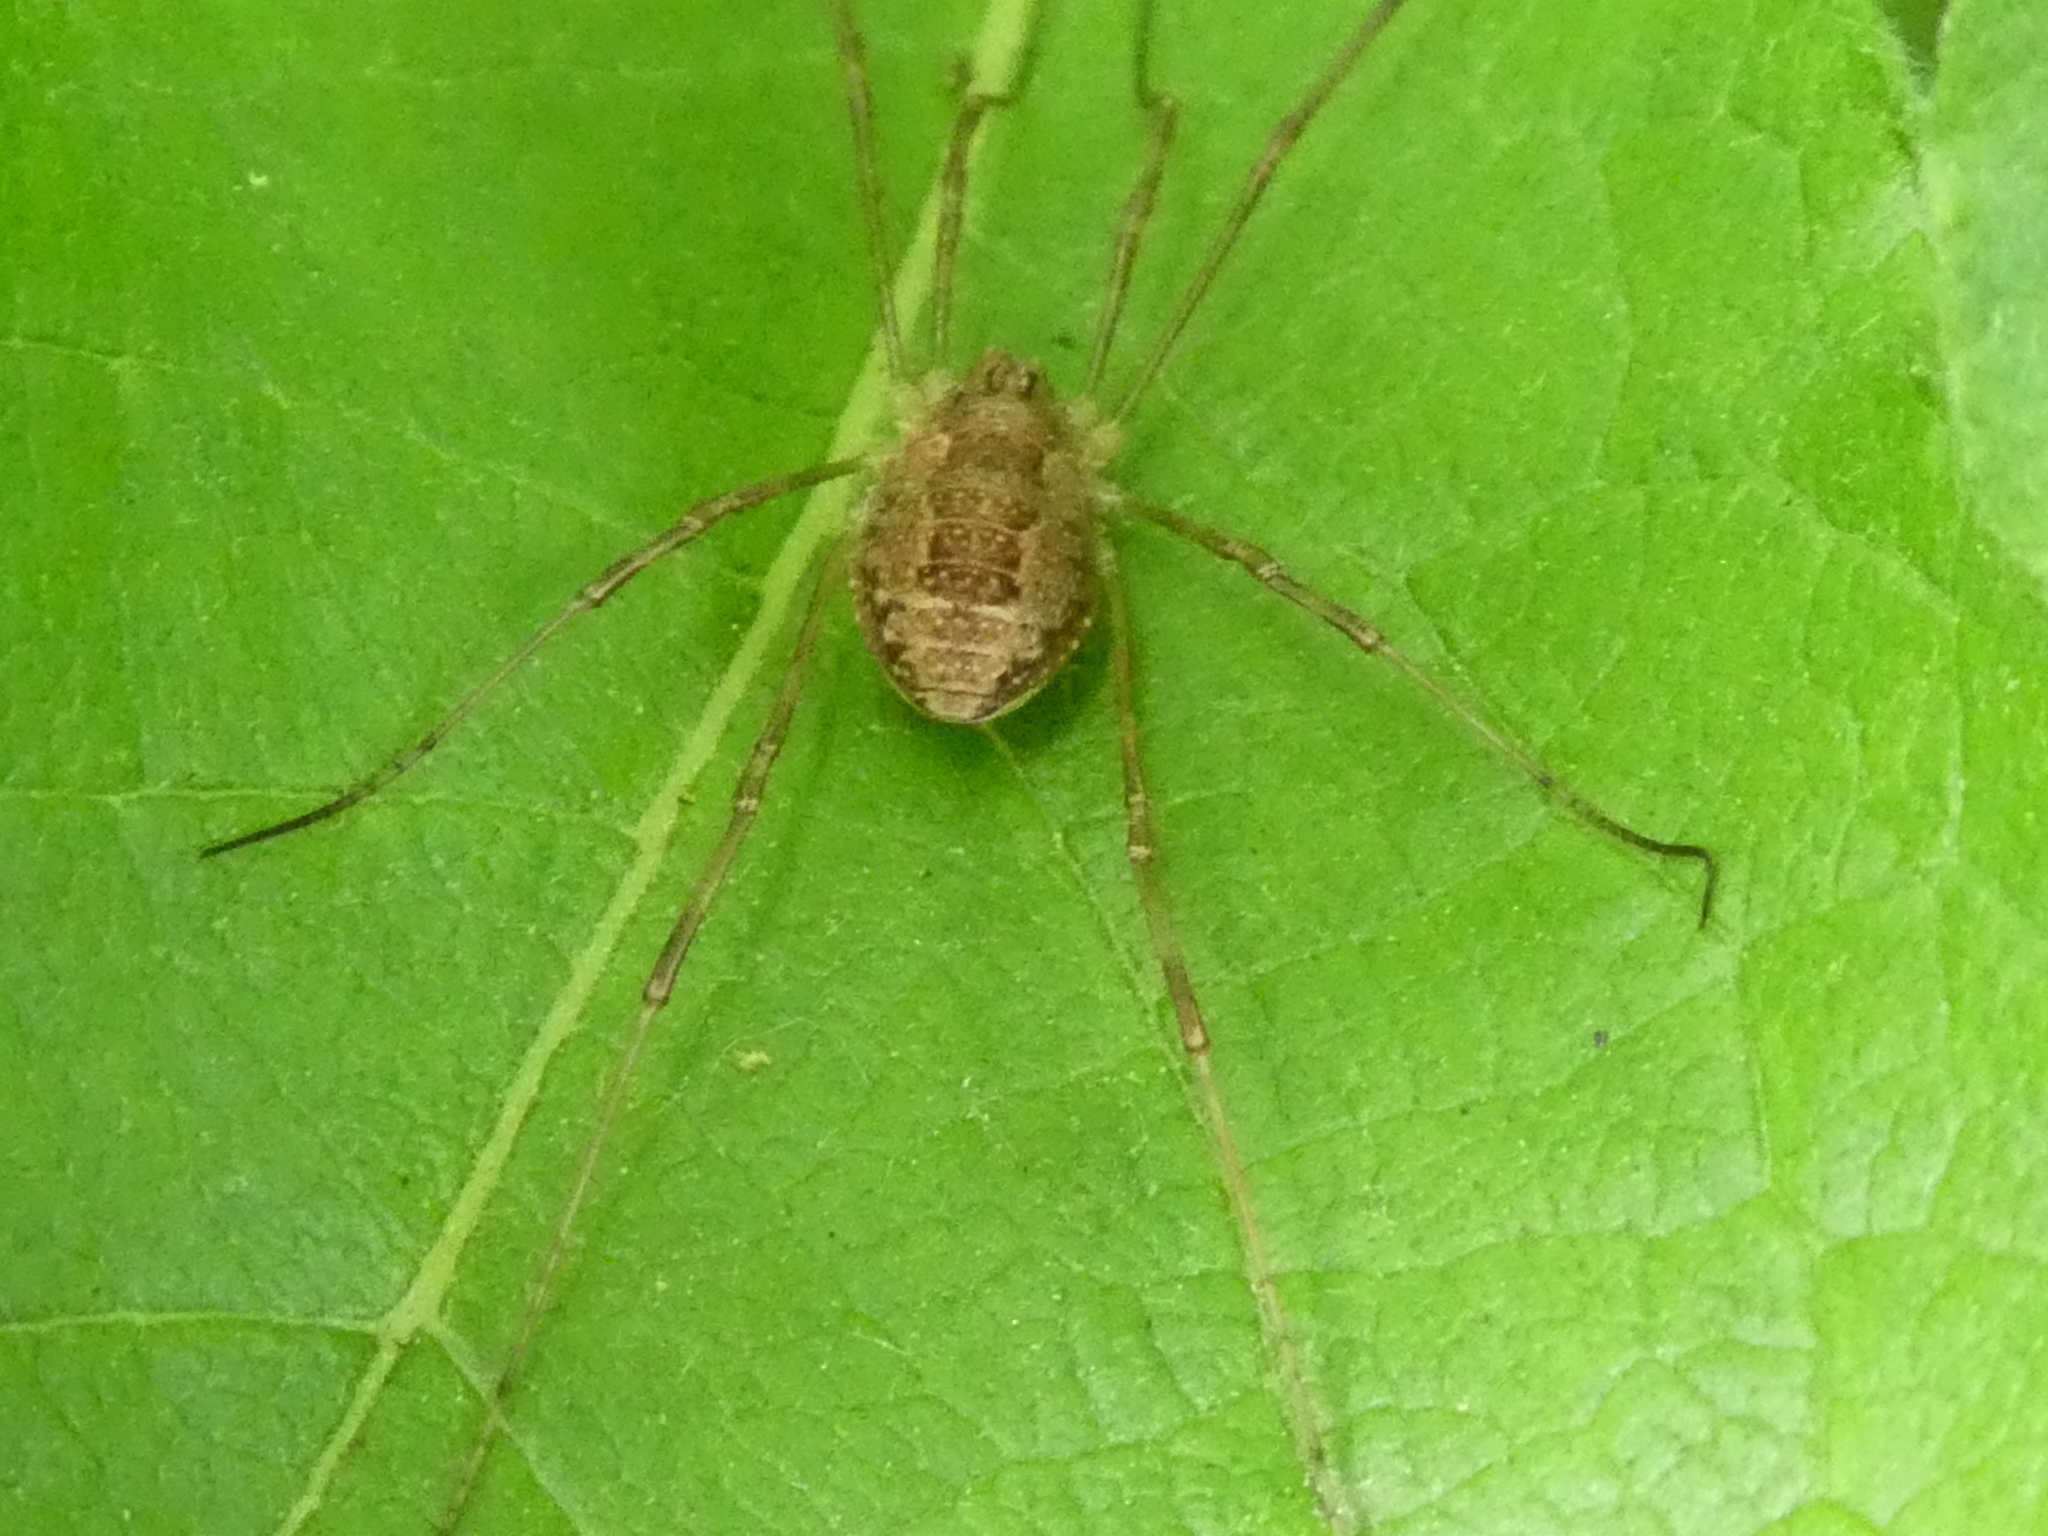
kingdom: Animalia
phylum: Arthropoda
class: Arachnida
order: Opiliones
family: Phalangiidae
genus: Rilaena
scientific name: Rilaena triangularis
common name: Spring harvestman
